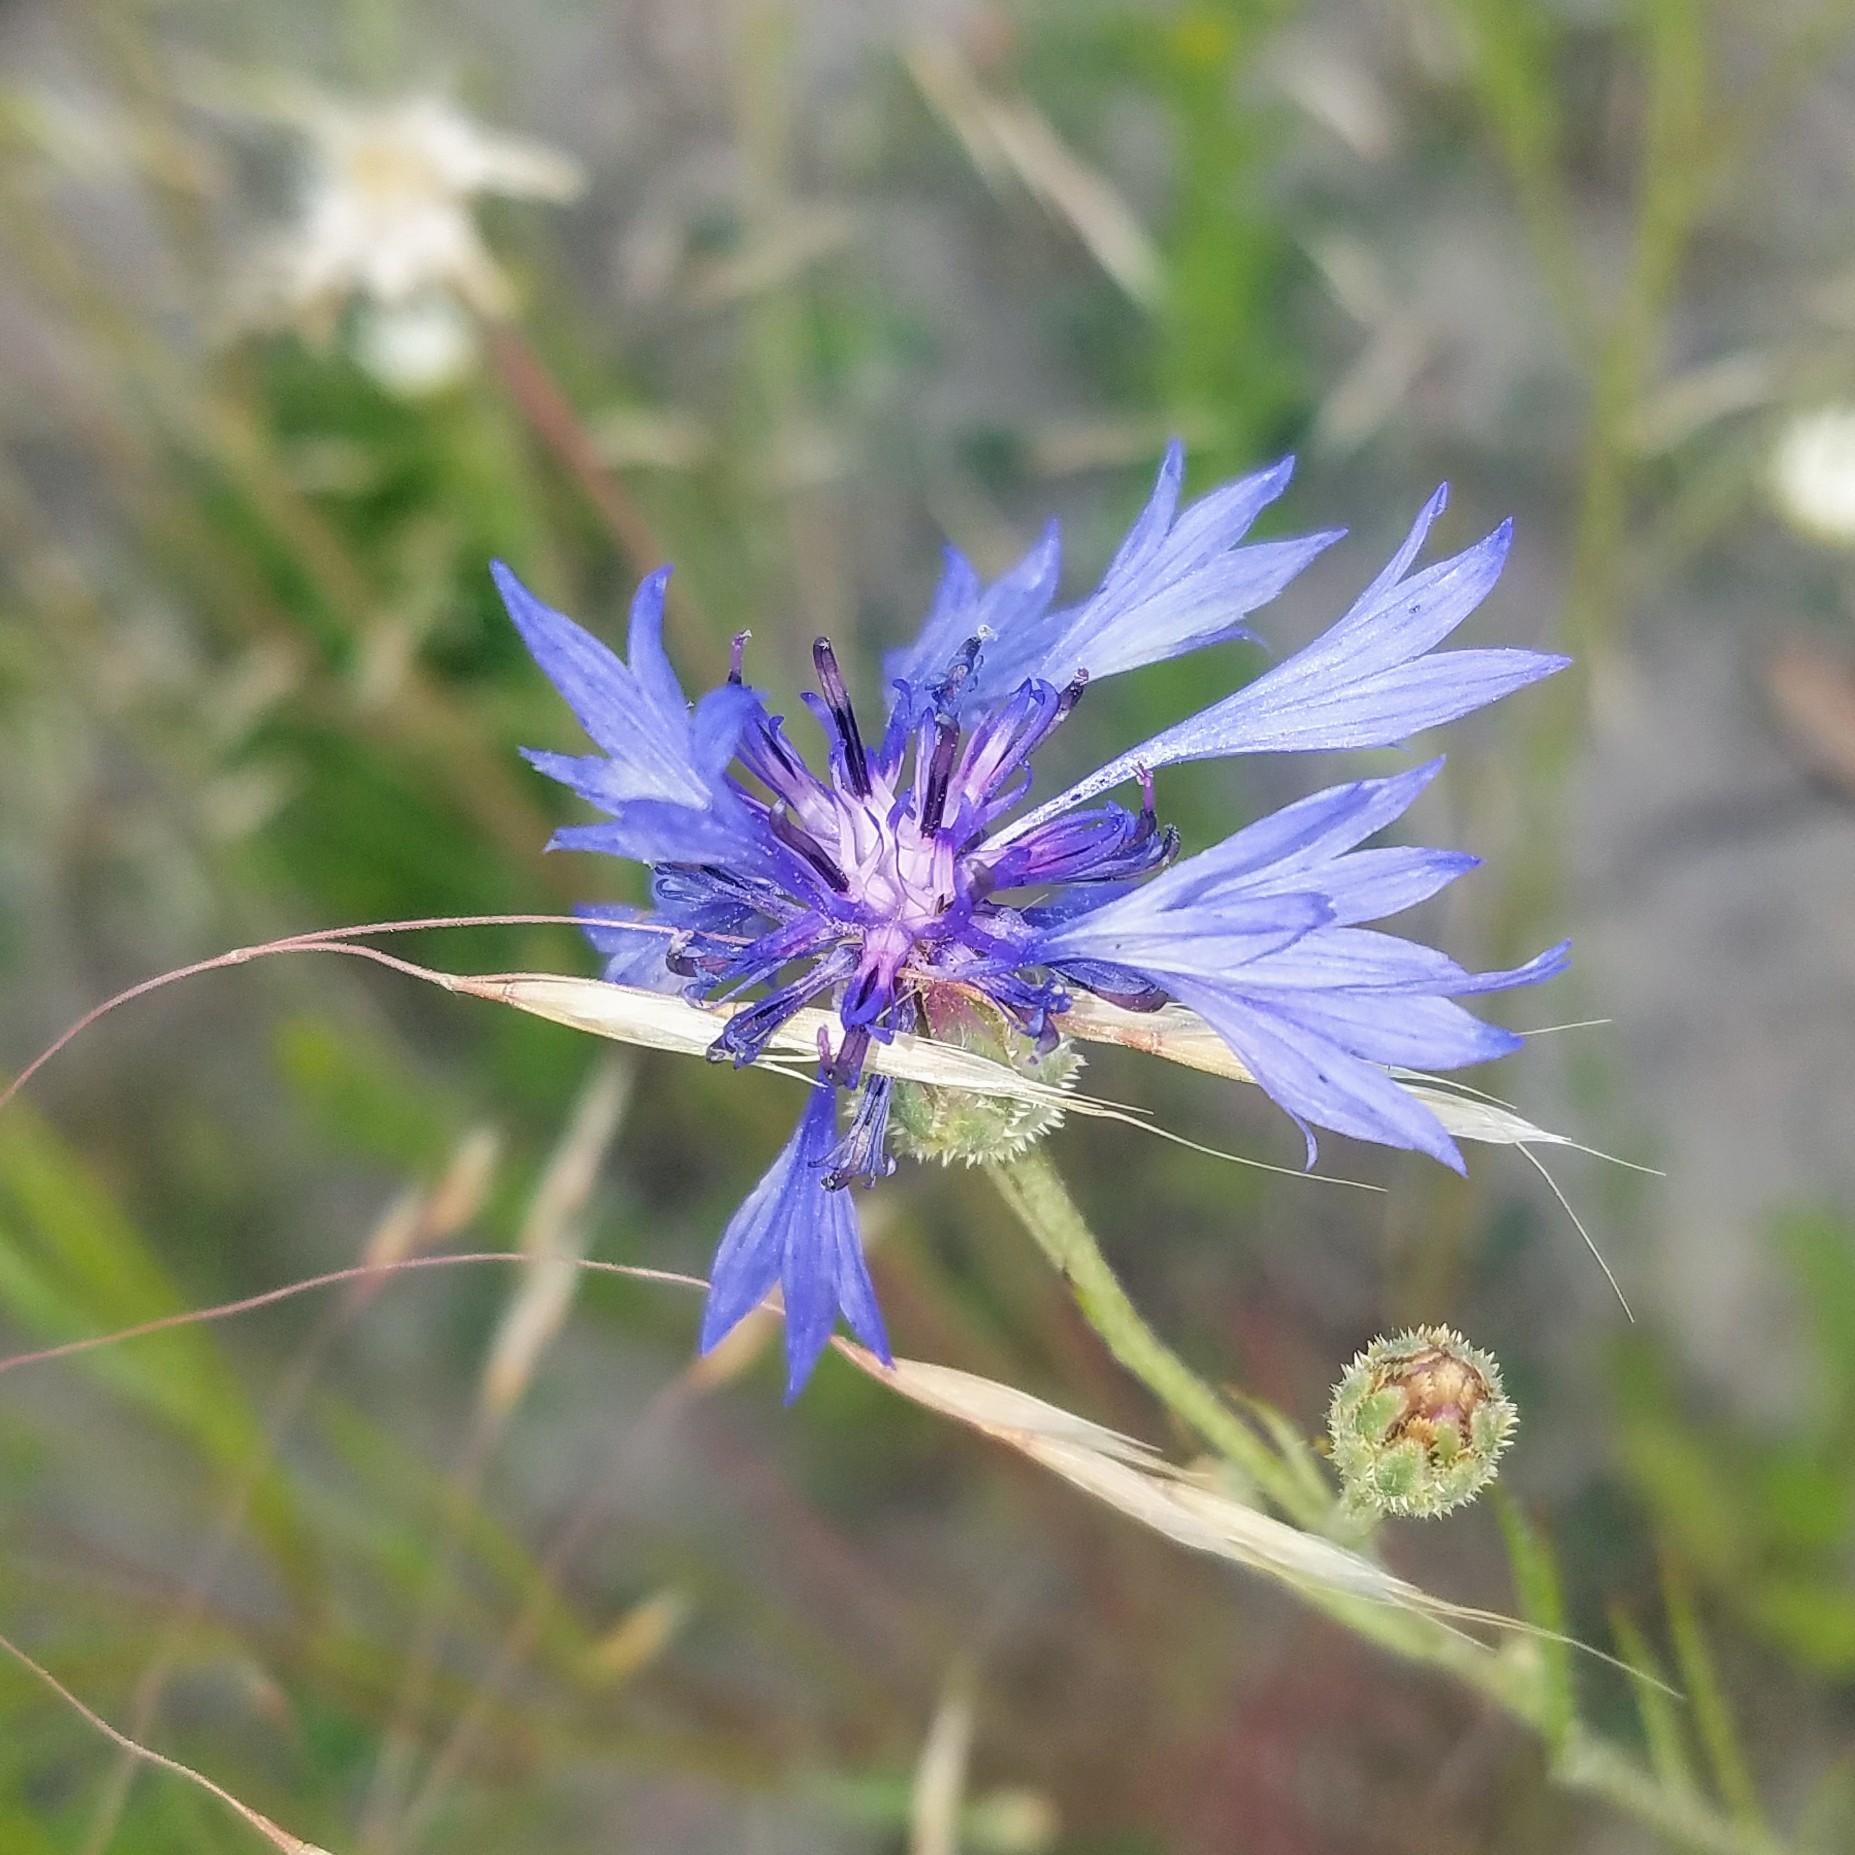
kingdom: Plantae
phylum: Tracheophyta
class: Magnoliopsida
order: Asterales
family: Asteraceae
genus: Centaurea
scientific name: Centaurea cyanus
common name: Cornflower
